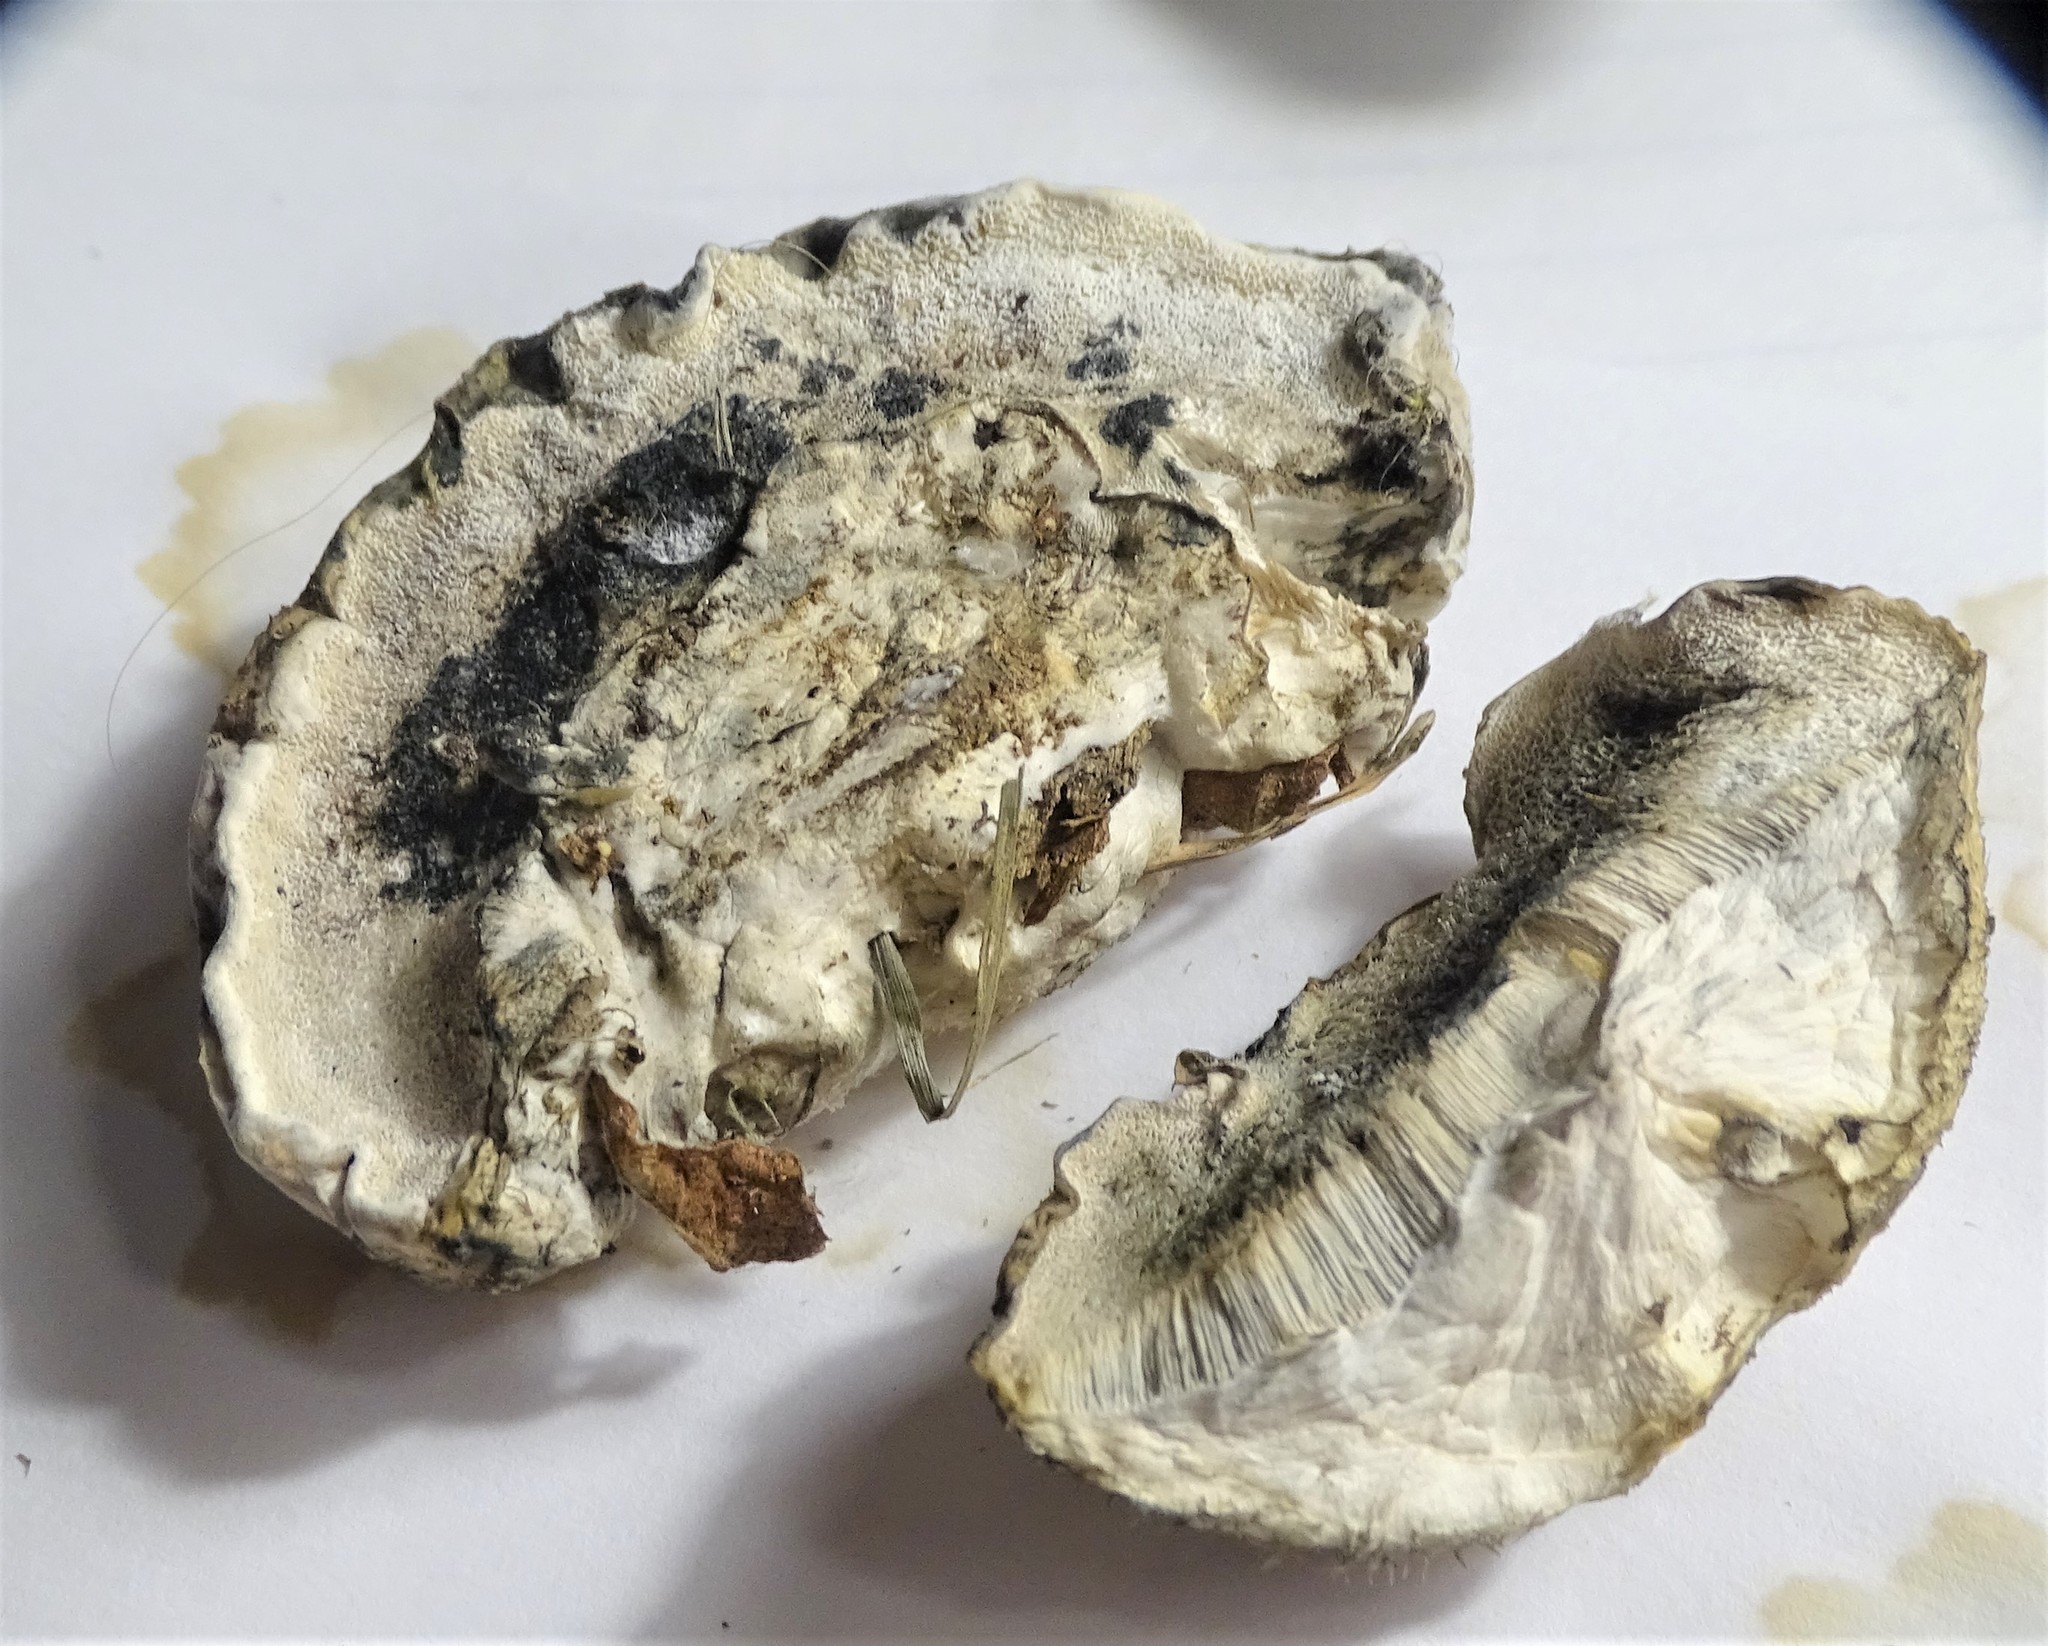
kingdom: Fungi
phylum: Basidiomycota
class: Agaricomycetes
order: Polyporales
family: Polyporaceae
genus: Cyanosporus
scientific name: Cyanosporus livens
